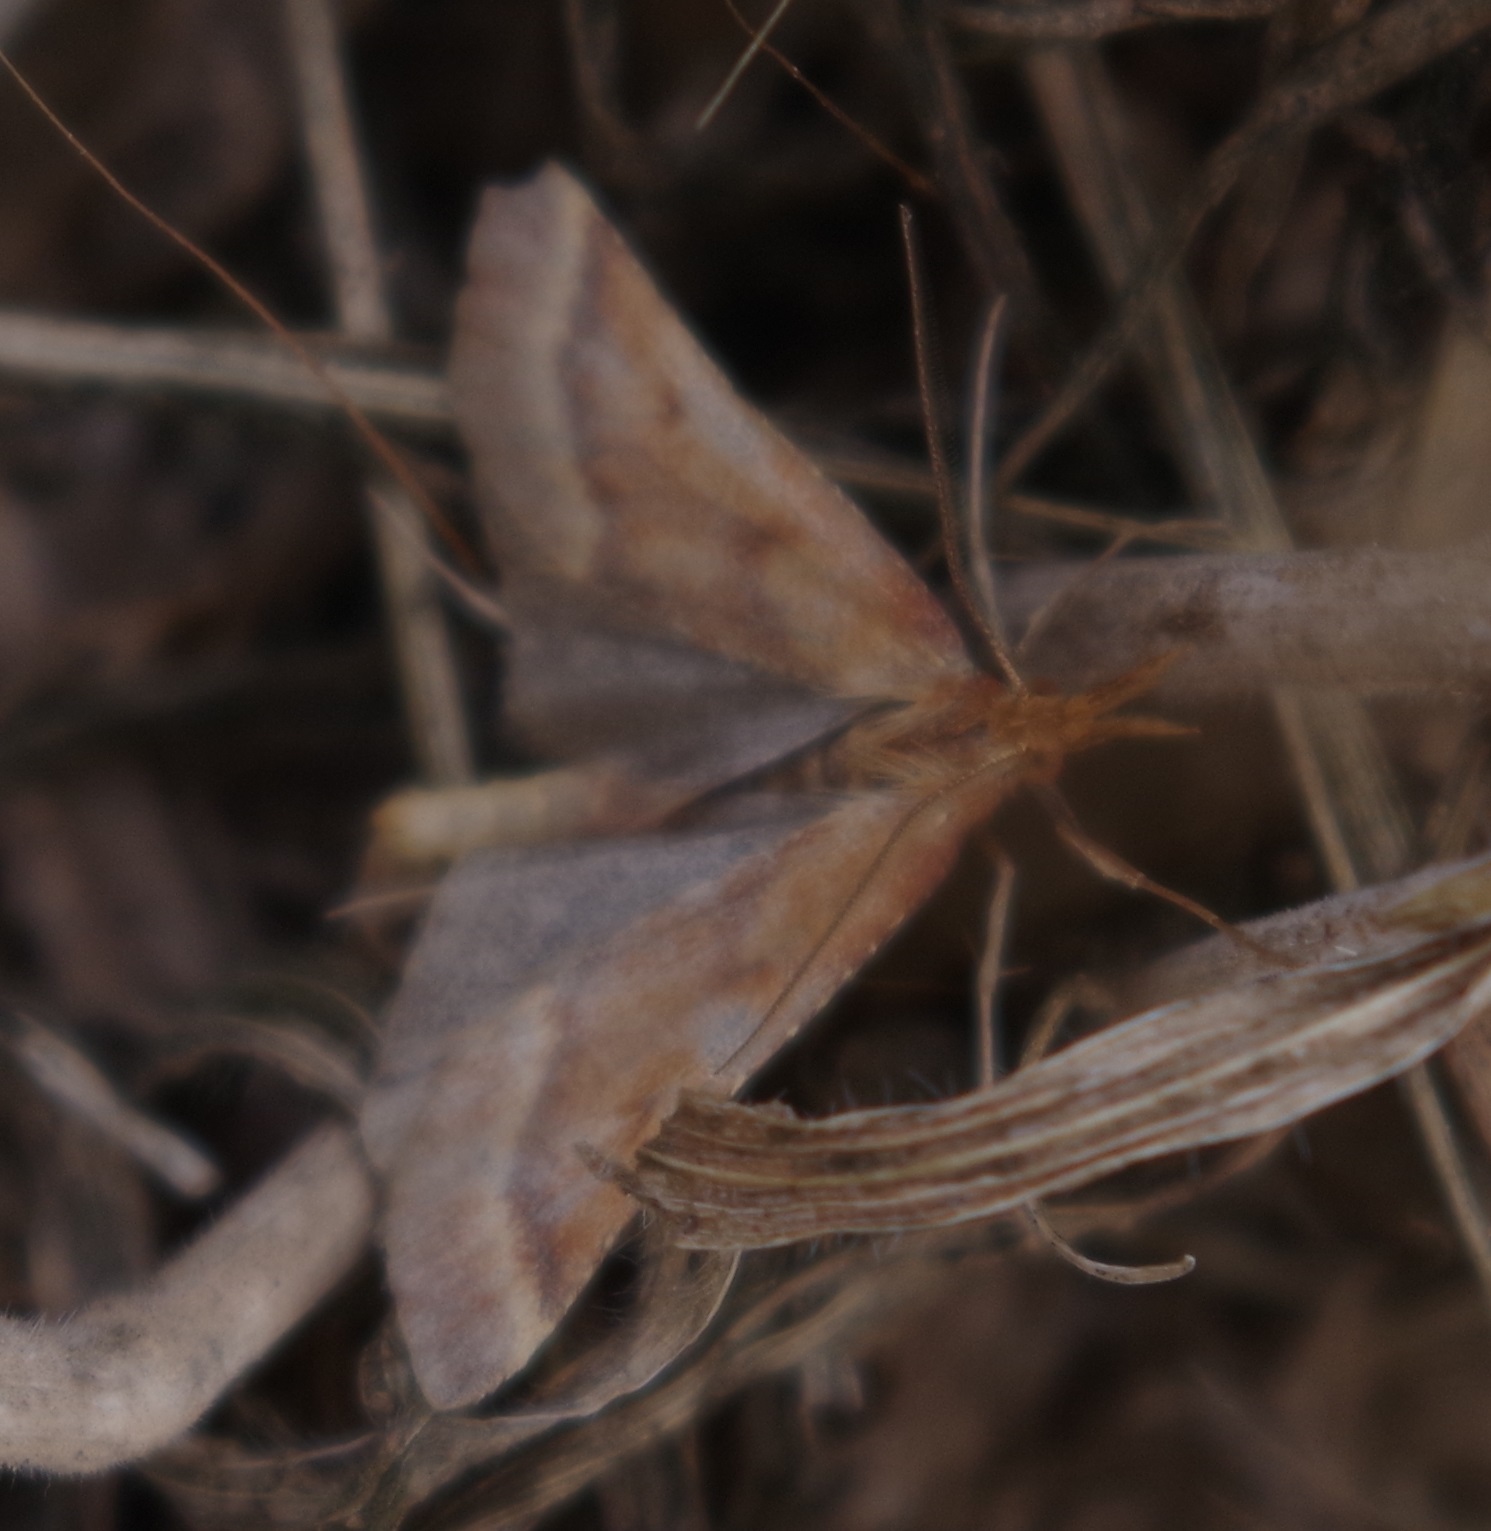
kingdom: Animalia
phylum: Arthropoda
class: Insecta
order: Lepidoptera
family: Pyralidae
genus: Synaphe
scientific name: Synaphe punctalis
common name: Long-legged tabby
